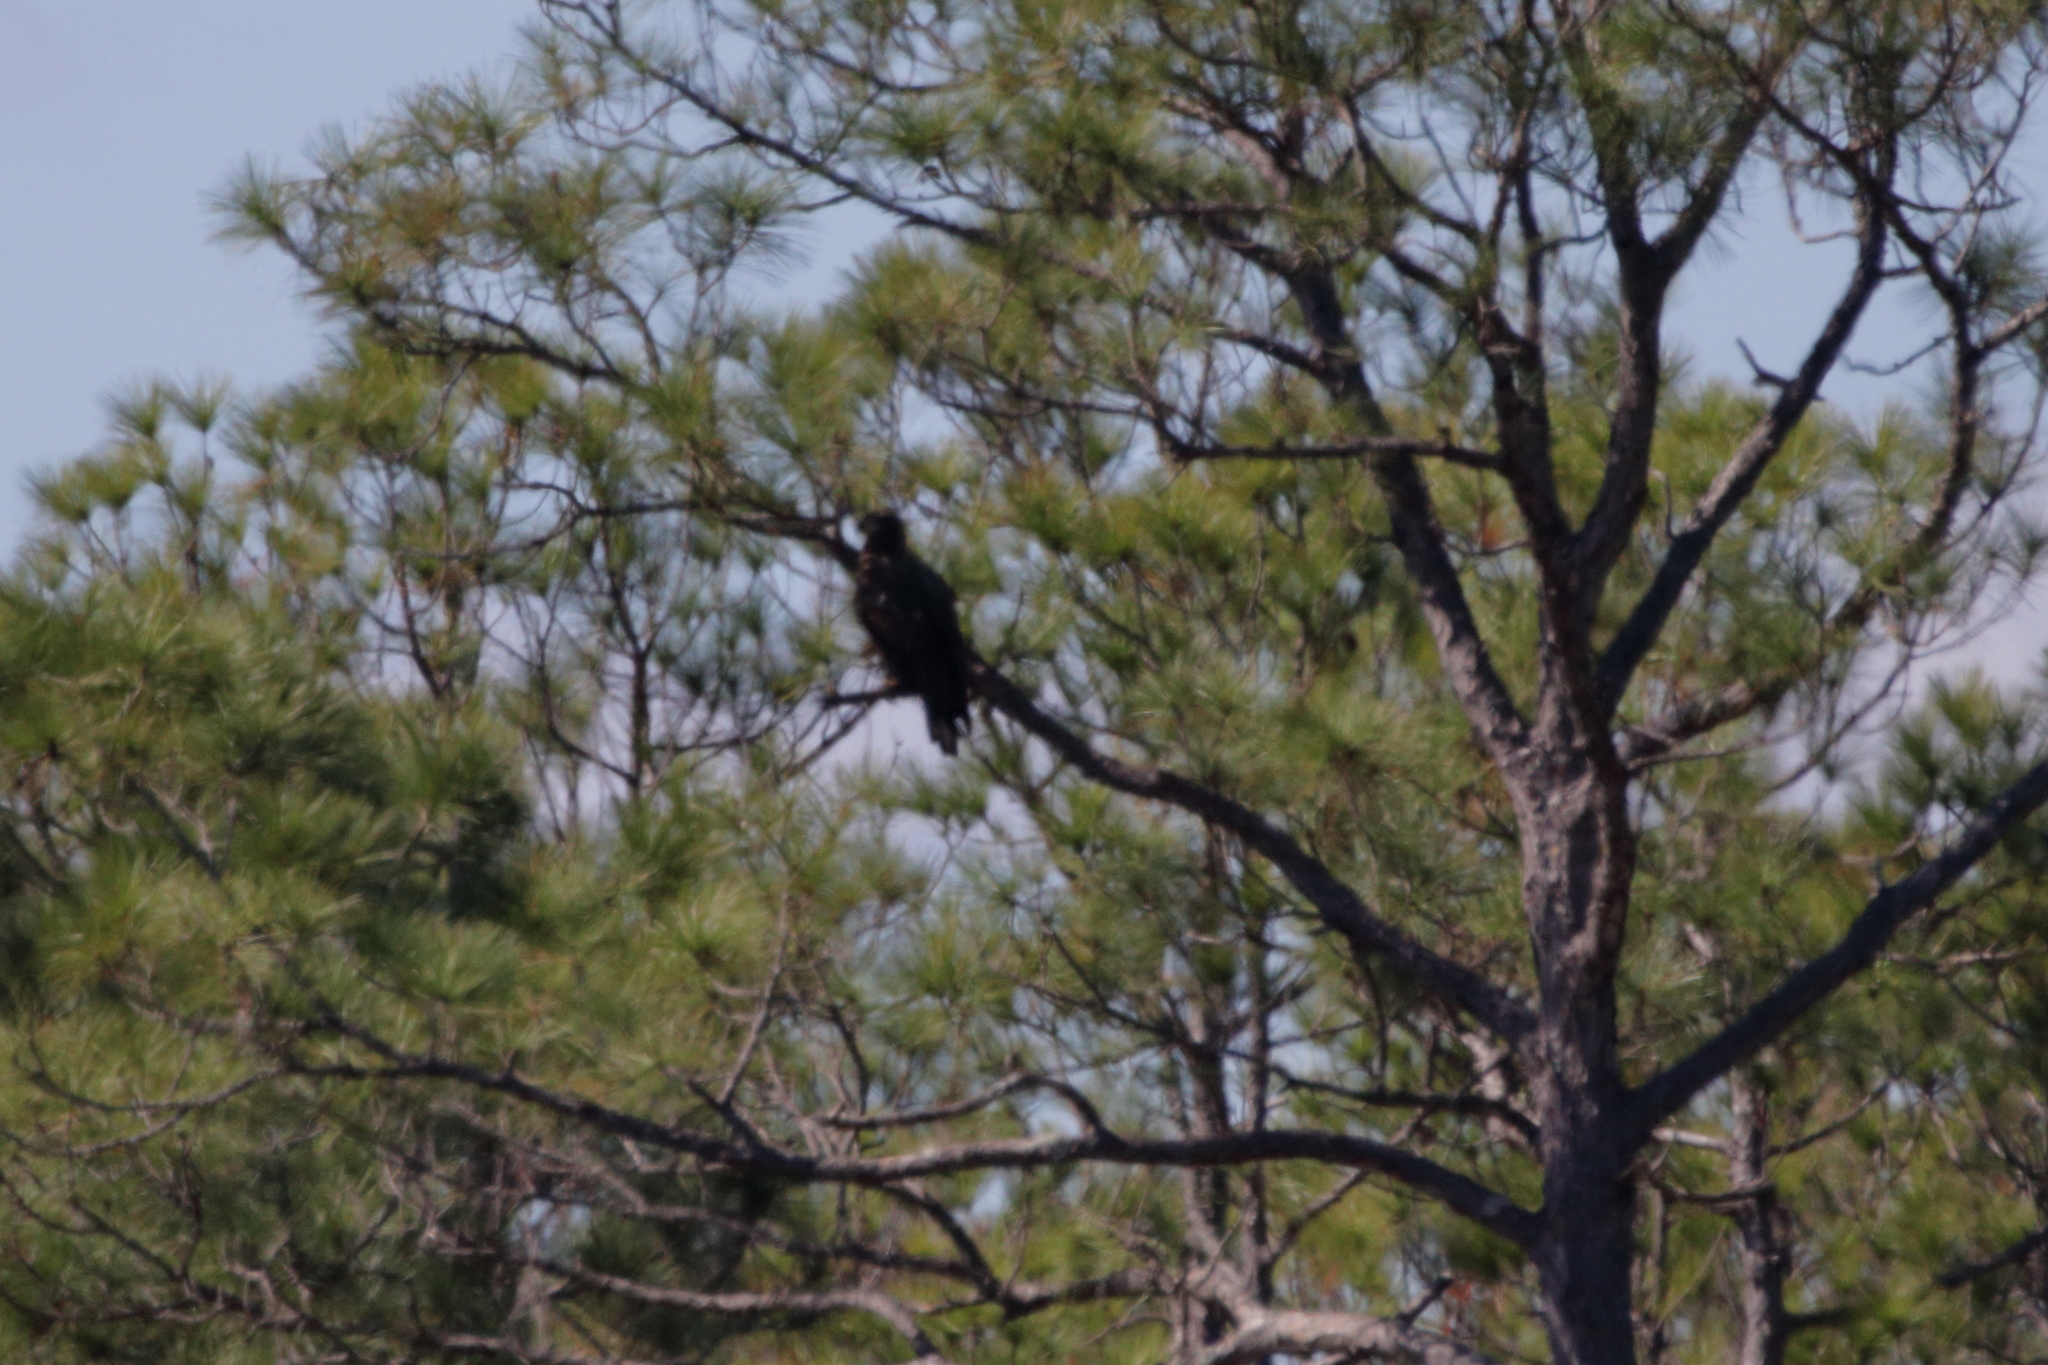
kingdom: Animalia
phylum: Chordata
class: Aves
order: Accipitriformes
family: Accipitridae
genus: Haliaeetus
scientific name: Haliaeetus leucocephalus
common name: Bald eagle
